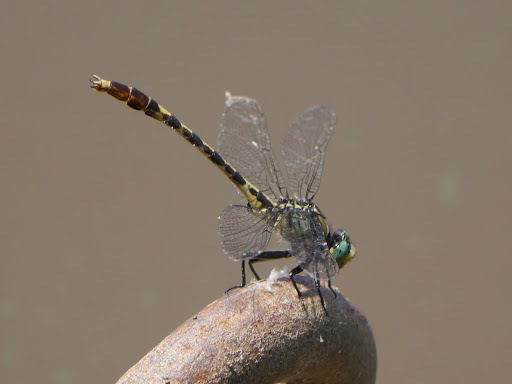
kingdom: Animalia
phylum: Arthropoda
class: Insecta
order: Odonata
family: Gomphidae
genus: Arigomphus
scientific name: Arigomphus villosipes
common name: Unicorn clubtail
